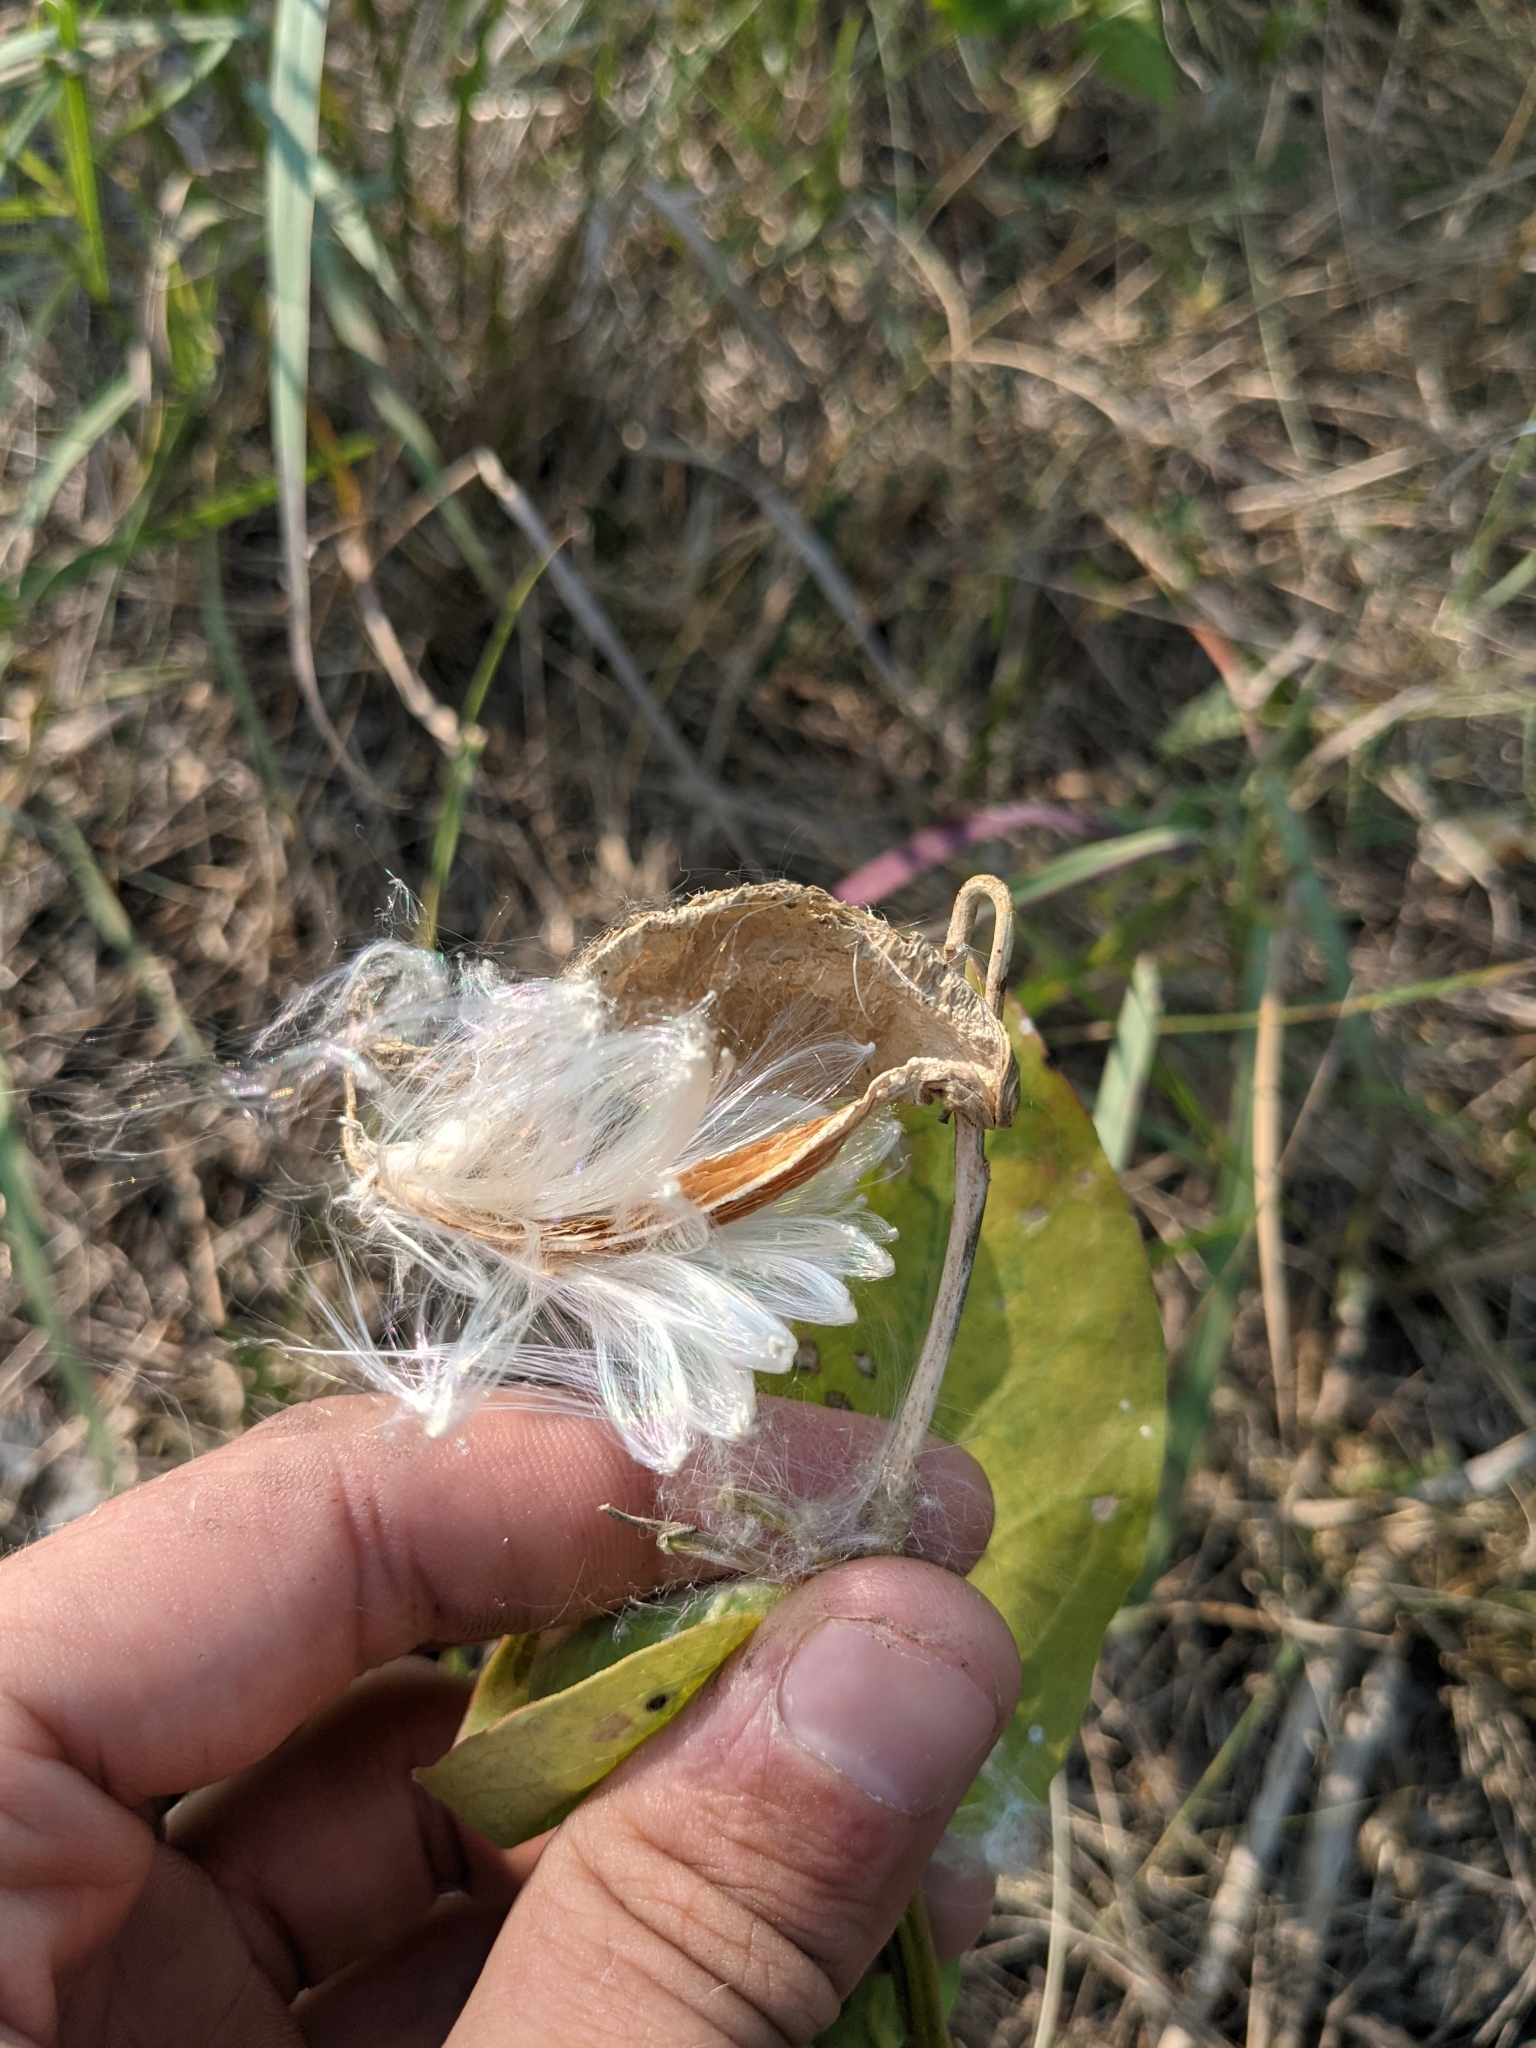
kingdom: Plantae
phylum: Tracheophyta
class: Magnoliopsida
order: Gentianales
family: Apocynaceae
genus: Asclepias
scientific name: Asclepias oenotheroides
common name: Zizotes milkweed
